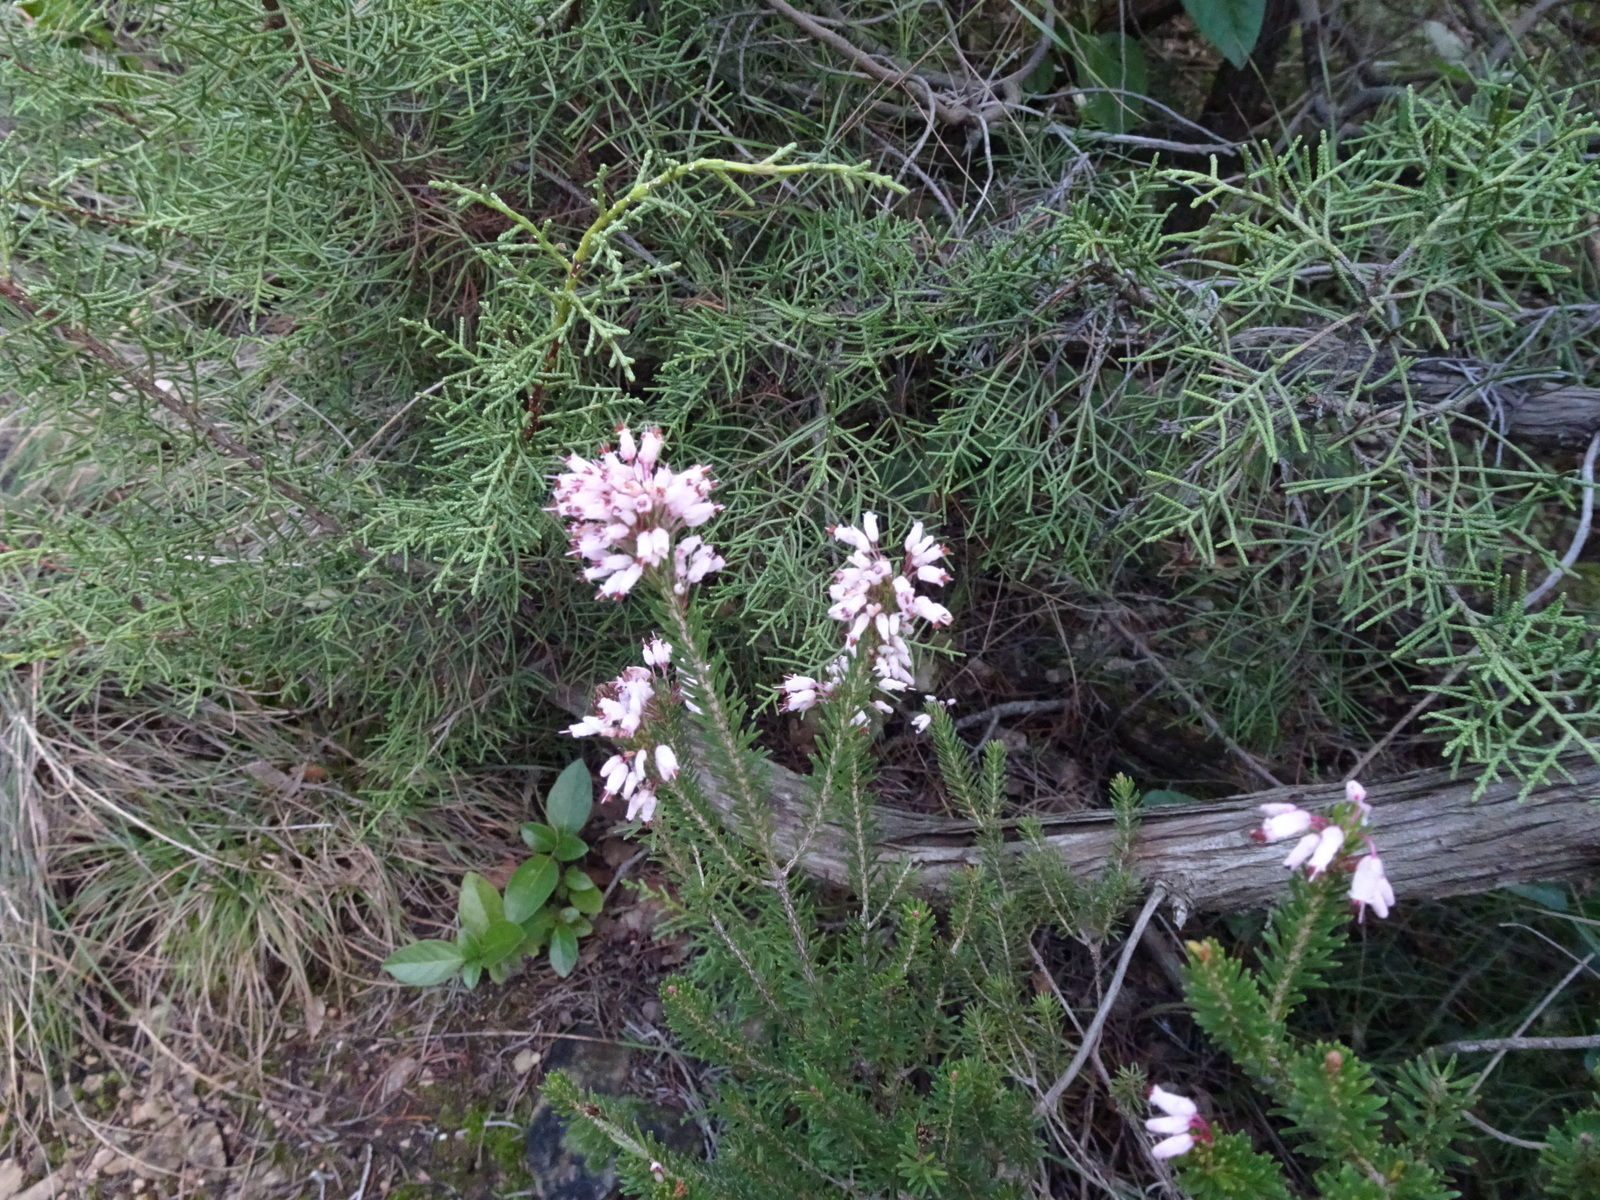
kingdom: Plantae
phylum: Tracheophyta
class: Magnoliopsida
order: Ericales
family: Ericaceae
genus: Erica
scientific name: Erica multiflora
